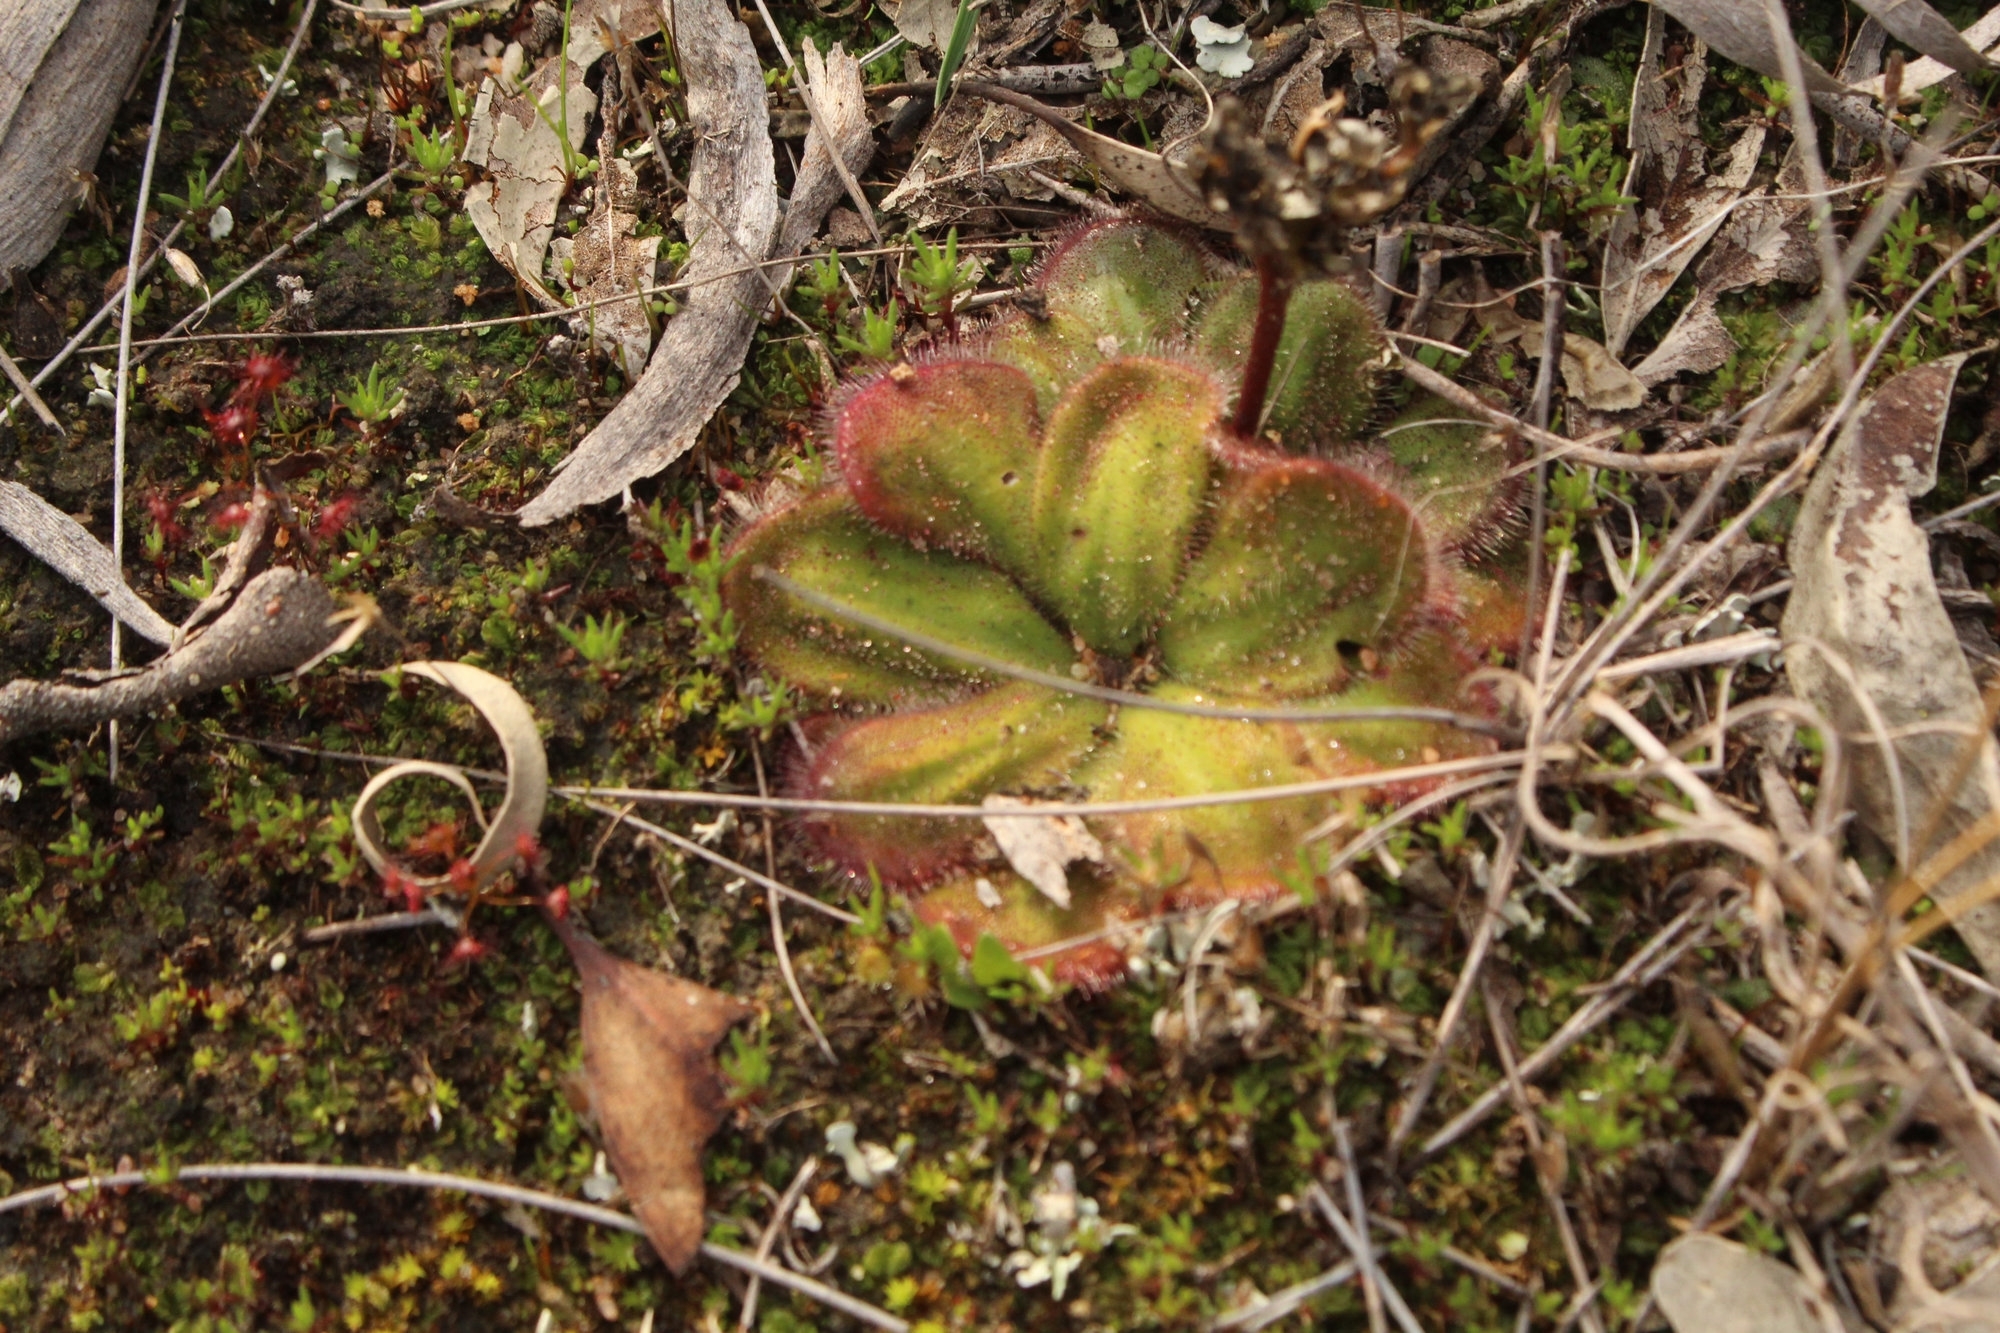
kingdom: Plantae
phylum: Tracheophyta
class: Magnoliopsida
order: Caryophyllales
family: Droseraceae
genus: Drosera
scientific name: Drosera erythrorhiza
